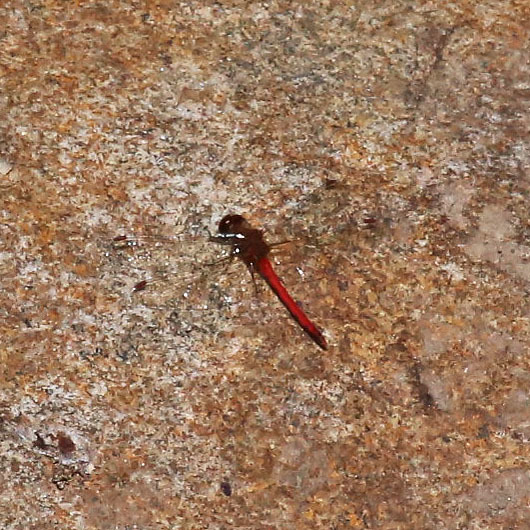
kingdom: Animalia
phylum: Arthropoda
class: Insecta
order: Odonata
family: Libellulidae
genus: Sympetrum
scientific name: Sympetrum vicinum
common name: Autumn meadowhawk
